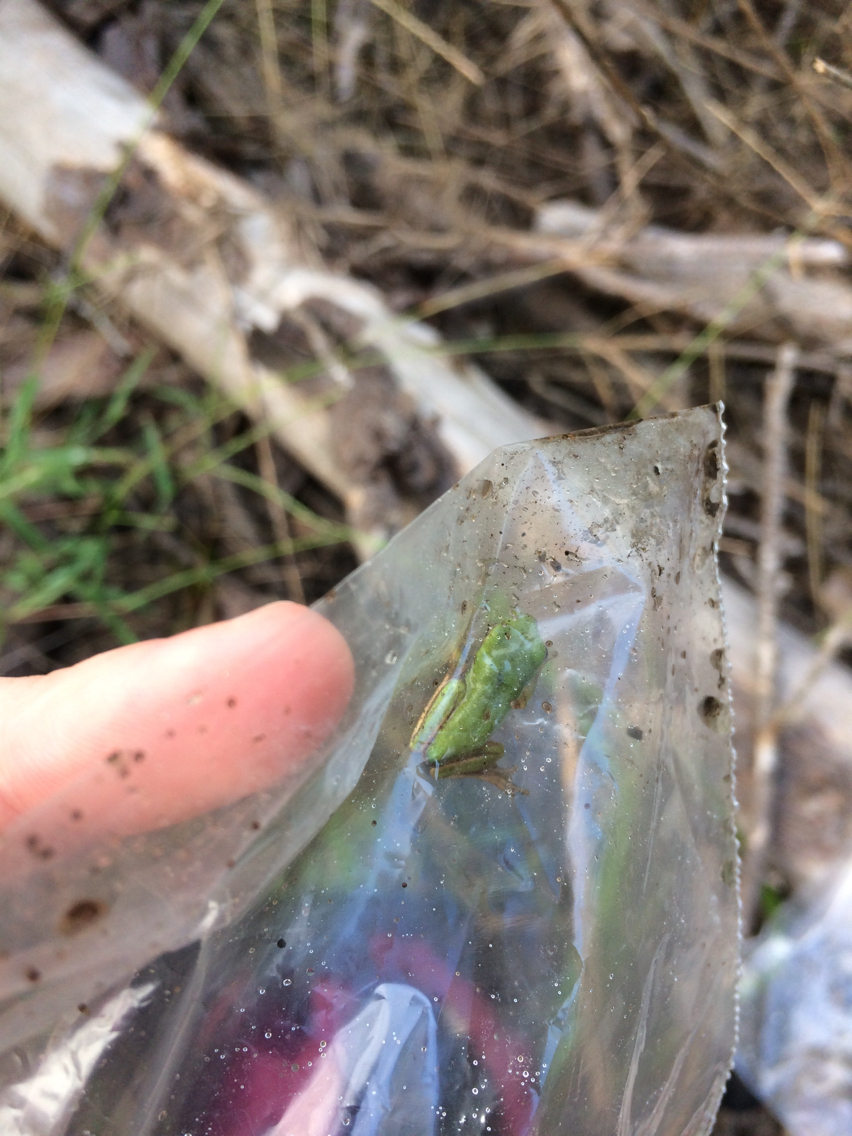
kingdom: Animalia
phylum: Chordata
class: Amphibia
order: Anura
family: Hylidae
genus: Dryophytes
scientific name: Dryophytes cinereus
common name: Green treefrog
